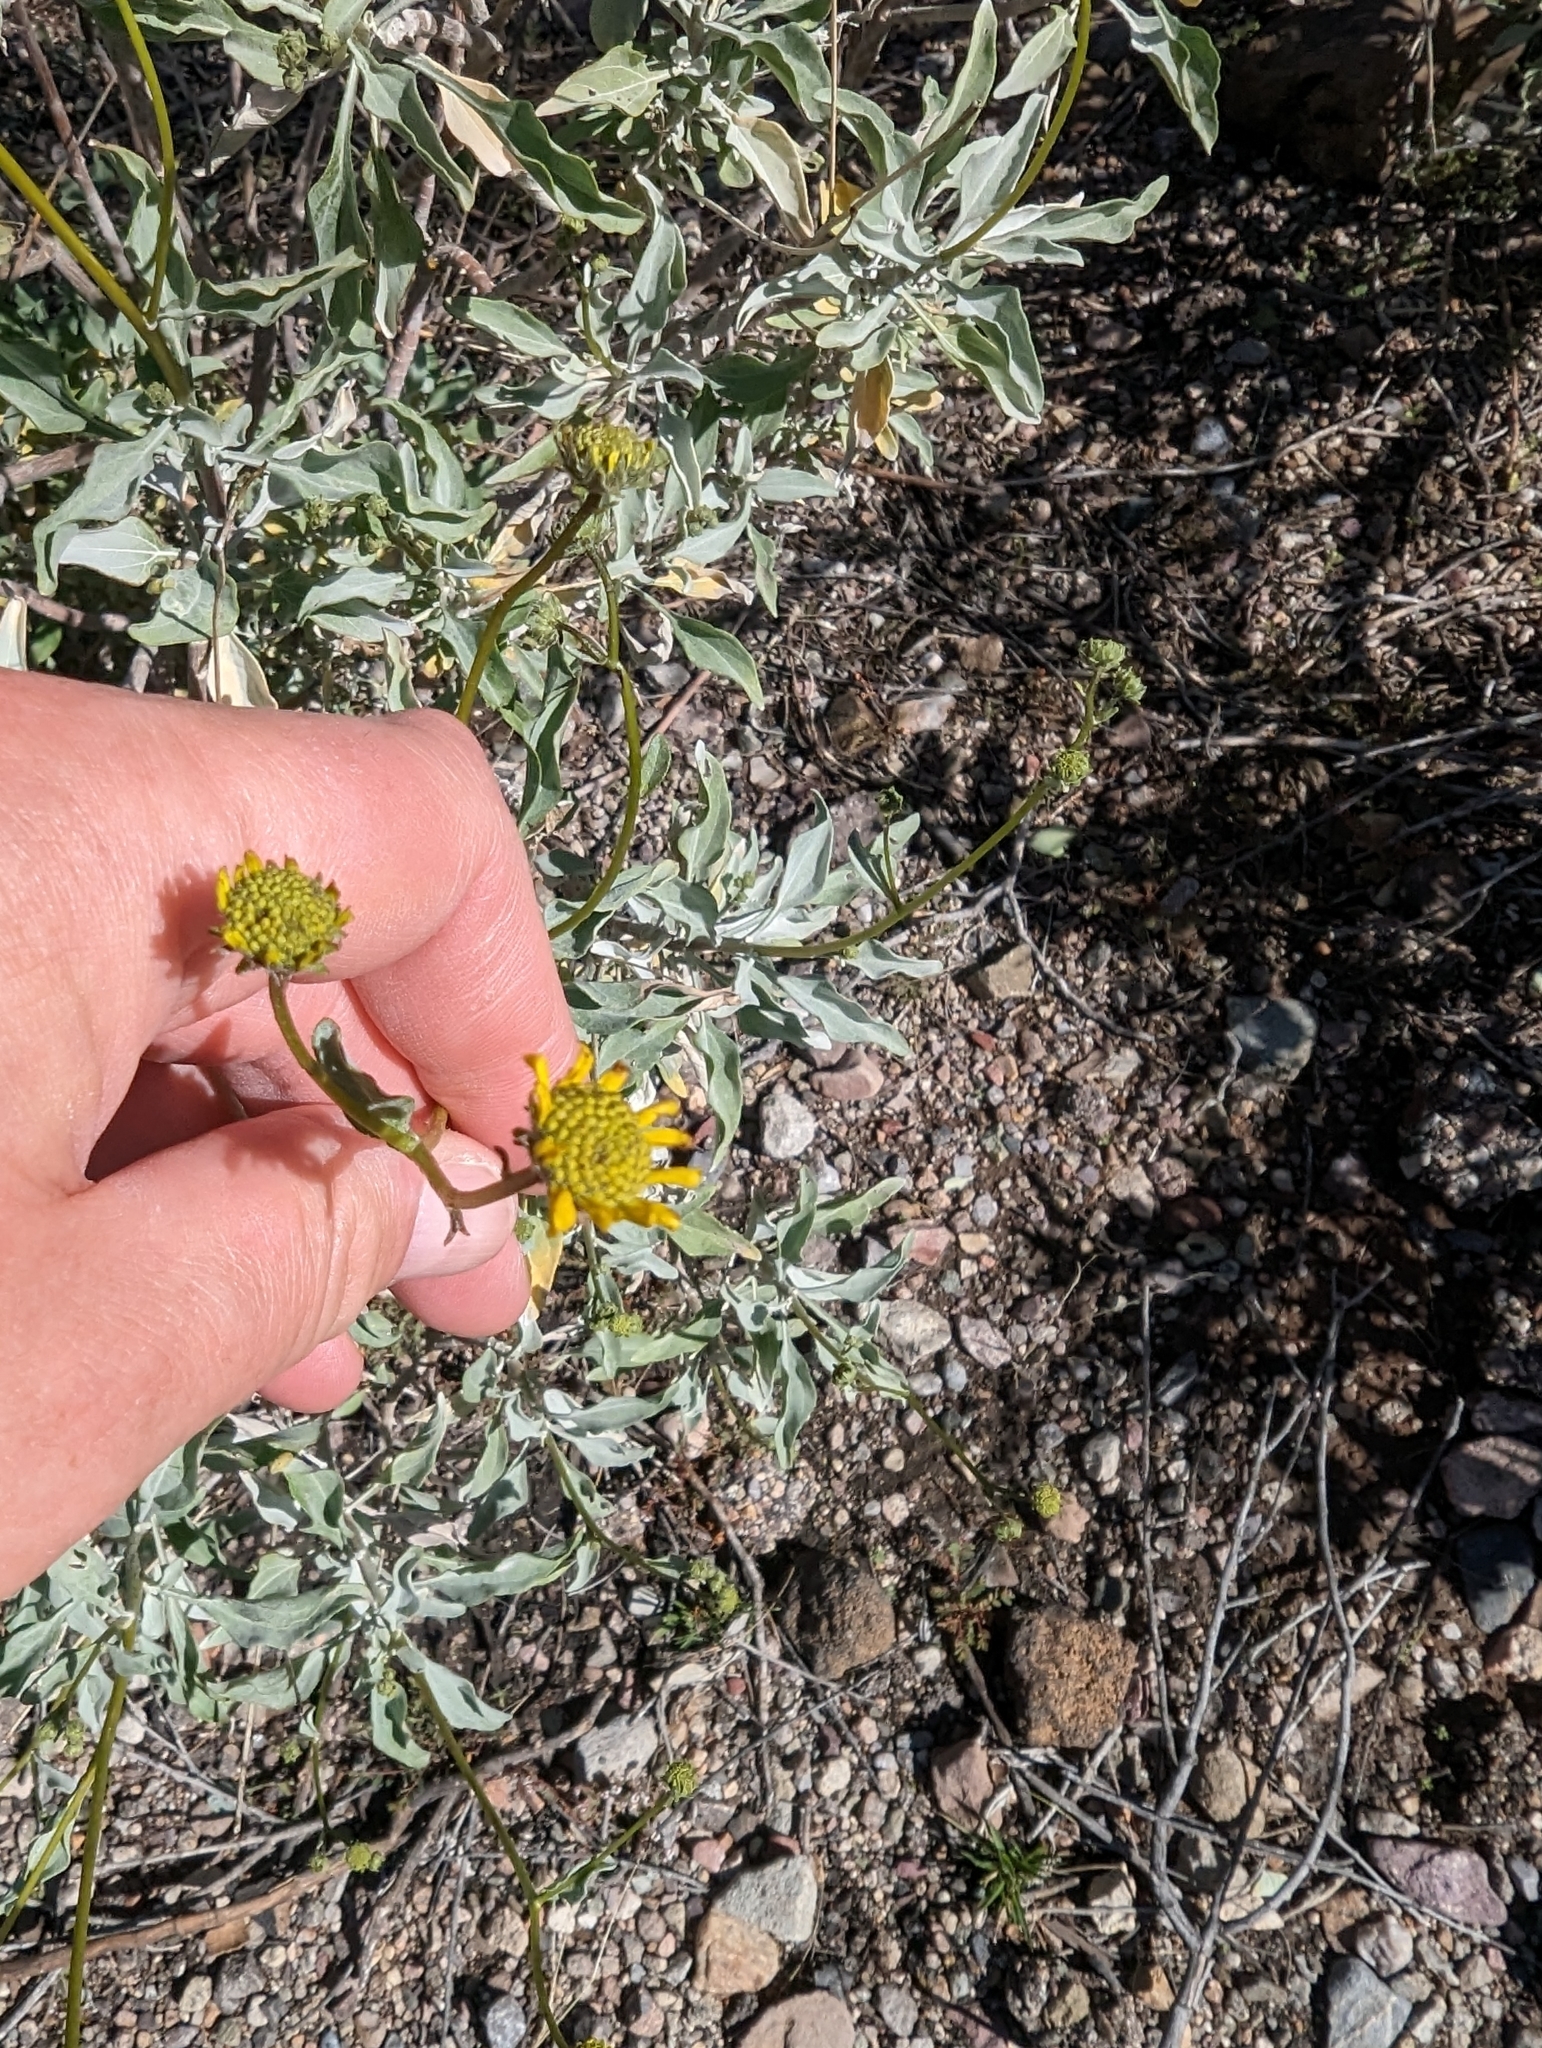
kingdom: Plantae
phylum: Tracheophyta
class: Magnoliopsida
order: Asterales
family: Asteraceae
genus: Encelia
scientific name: Encelia farinosa
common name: Brittlebush
